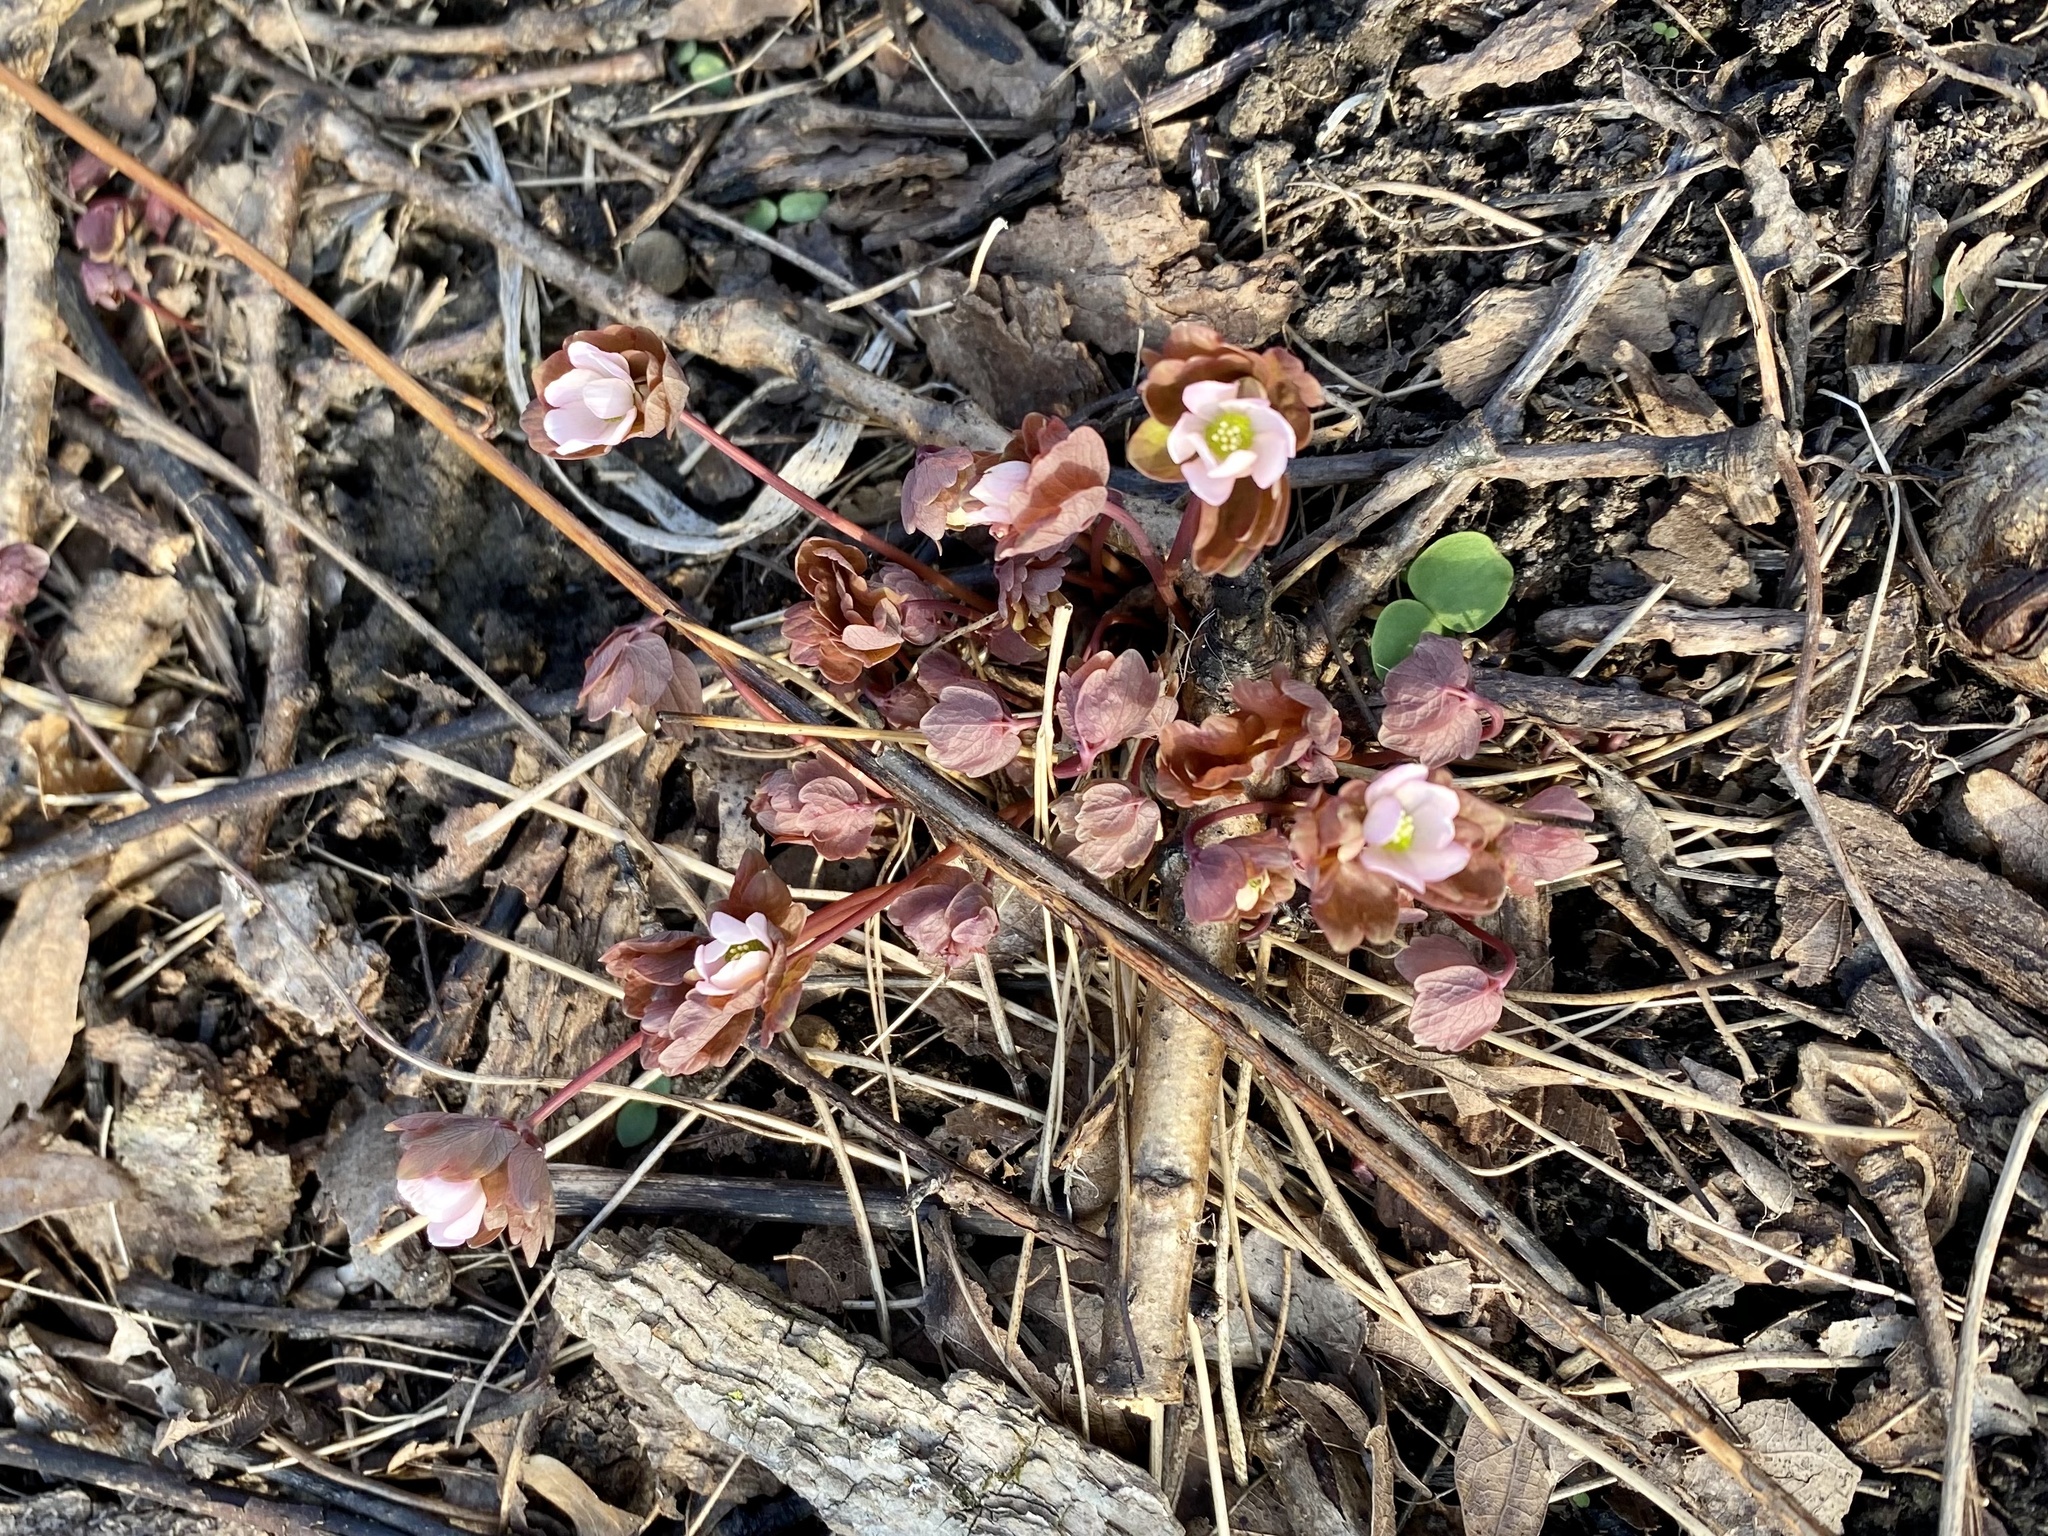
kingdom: Plantae
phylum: Tracheophyta
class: Magnoliopsida
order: Ranunculales
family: Ranunculaceae
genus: Thalictrum
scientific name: Thalictrum thalictroides
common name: Rue-anemone
